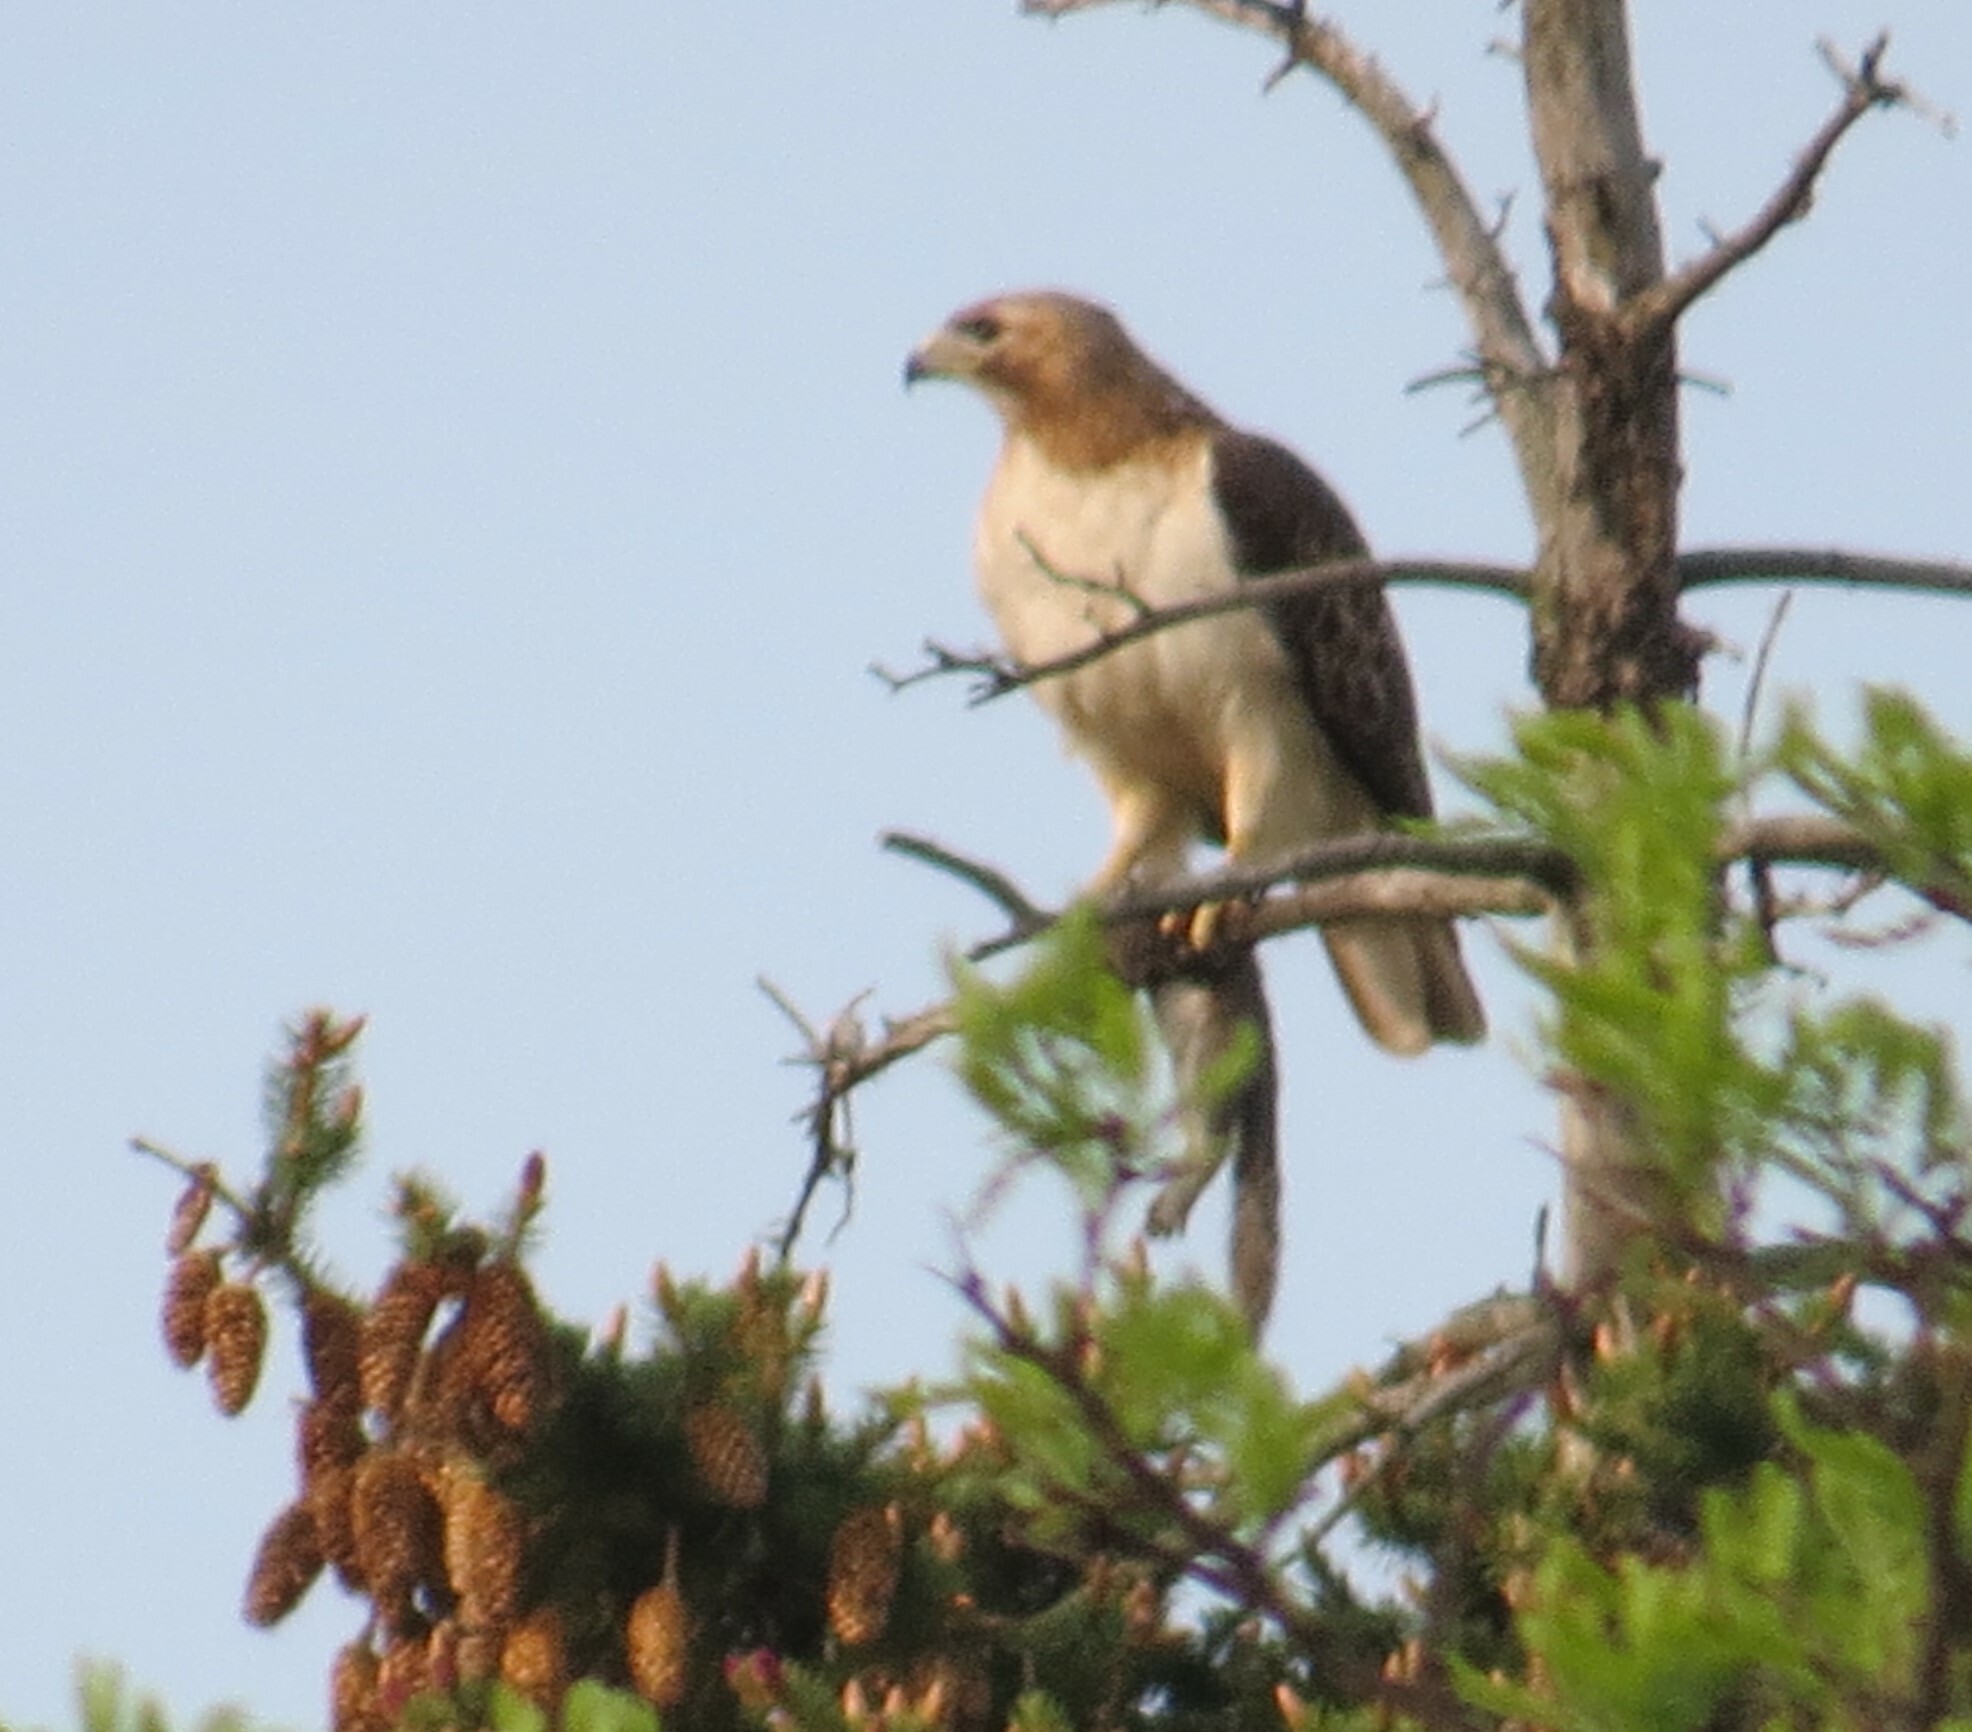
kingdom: Animalia
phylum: Chordata
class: Aves
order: Accipitriformes
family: Accipitridae
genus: Buteo
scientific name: Buteo jamaicensis
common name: Red-tailed hawk
